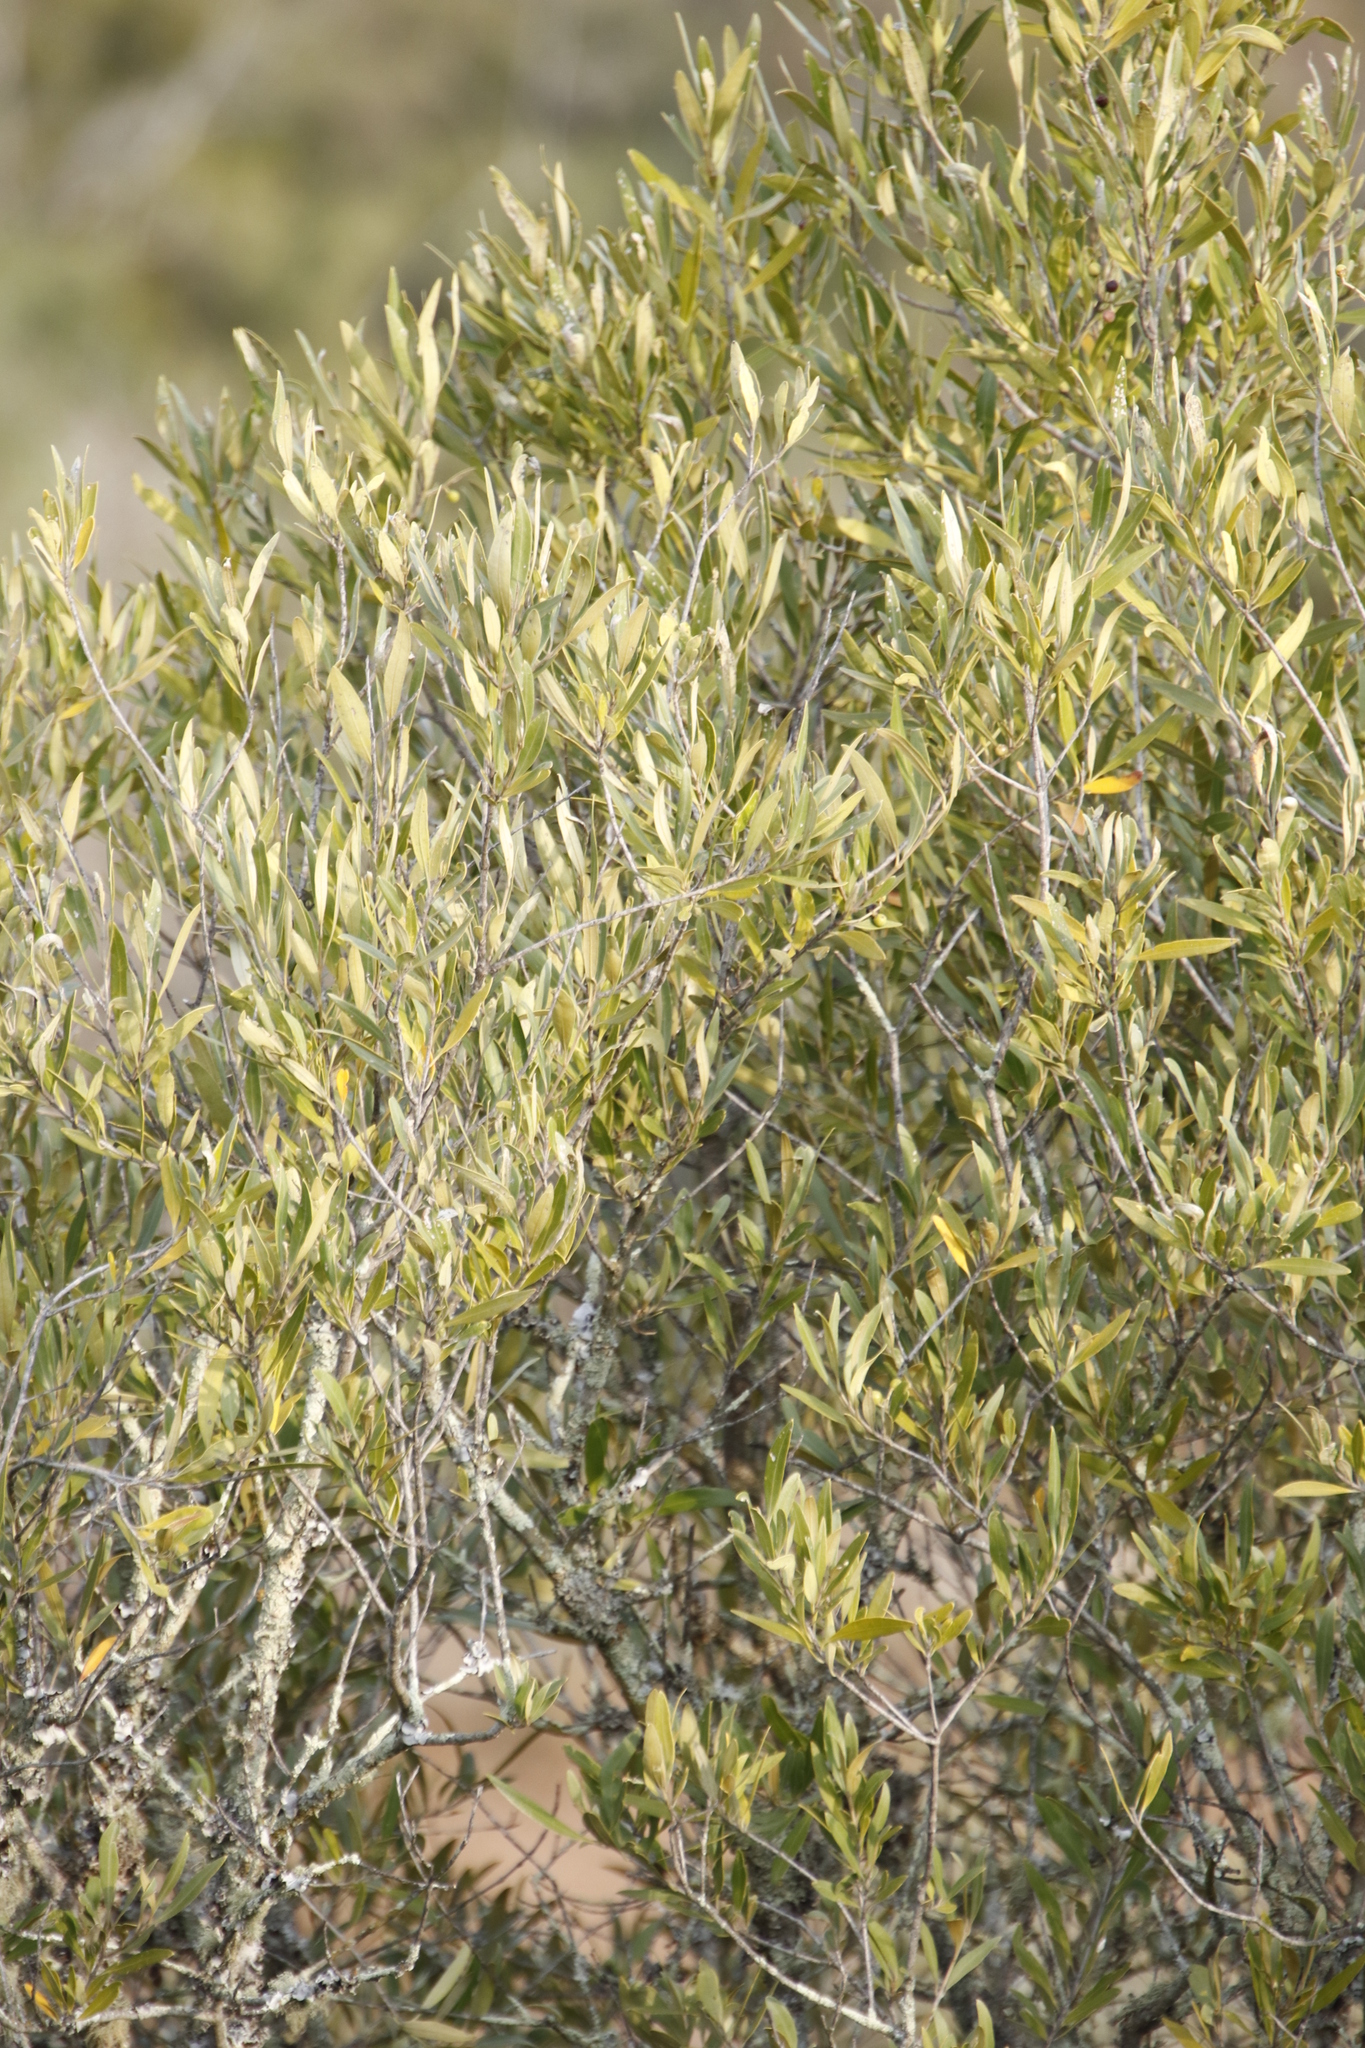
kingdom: Plantae
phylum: Tracheophyta
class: Magnoliopsida
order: Lamiales
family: Oleaceae
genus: Olea
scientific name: Olea europaea
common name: Olive
